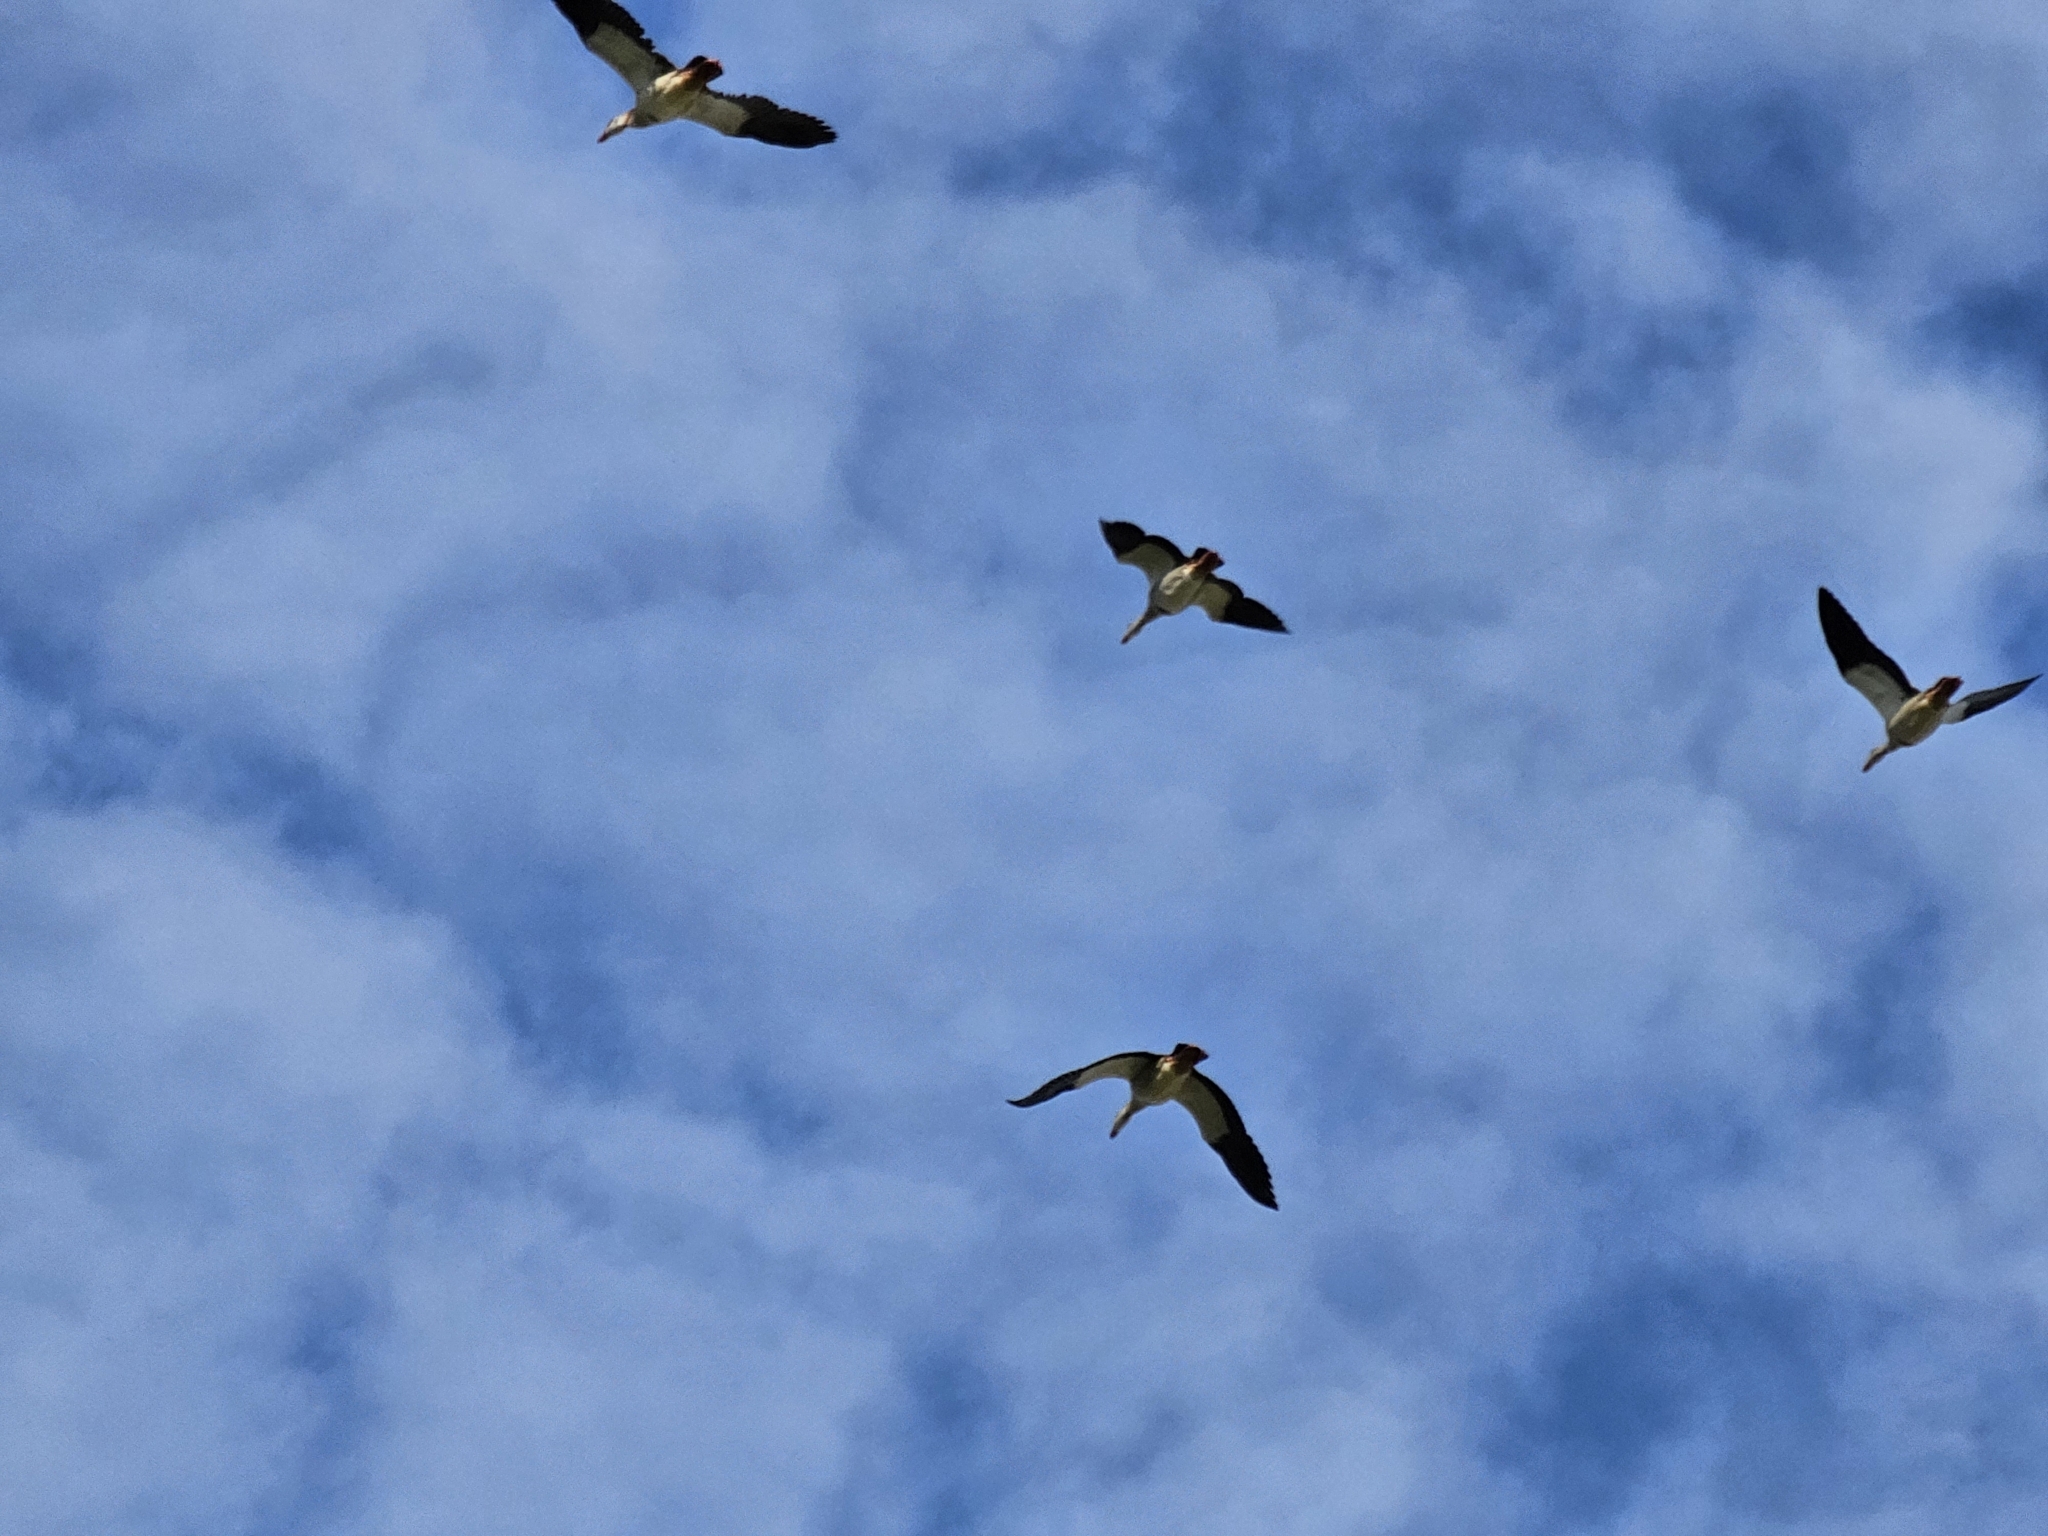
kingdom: Animalia
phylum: Chordata
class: Aves
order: Anseriformes
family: Anatidae
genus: Alopochen
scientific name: Alopochen aegyptiaca
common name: Egyptian goose
